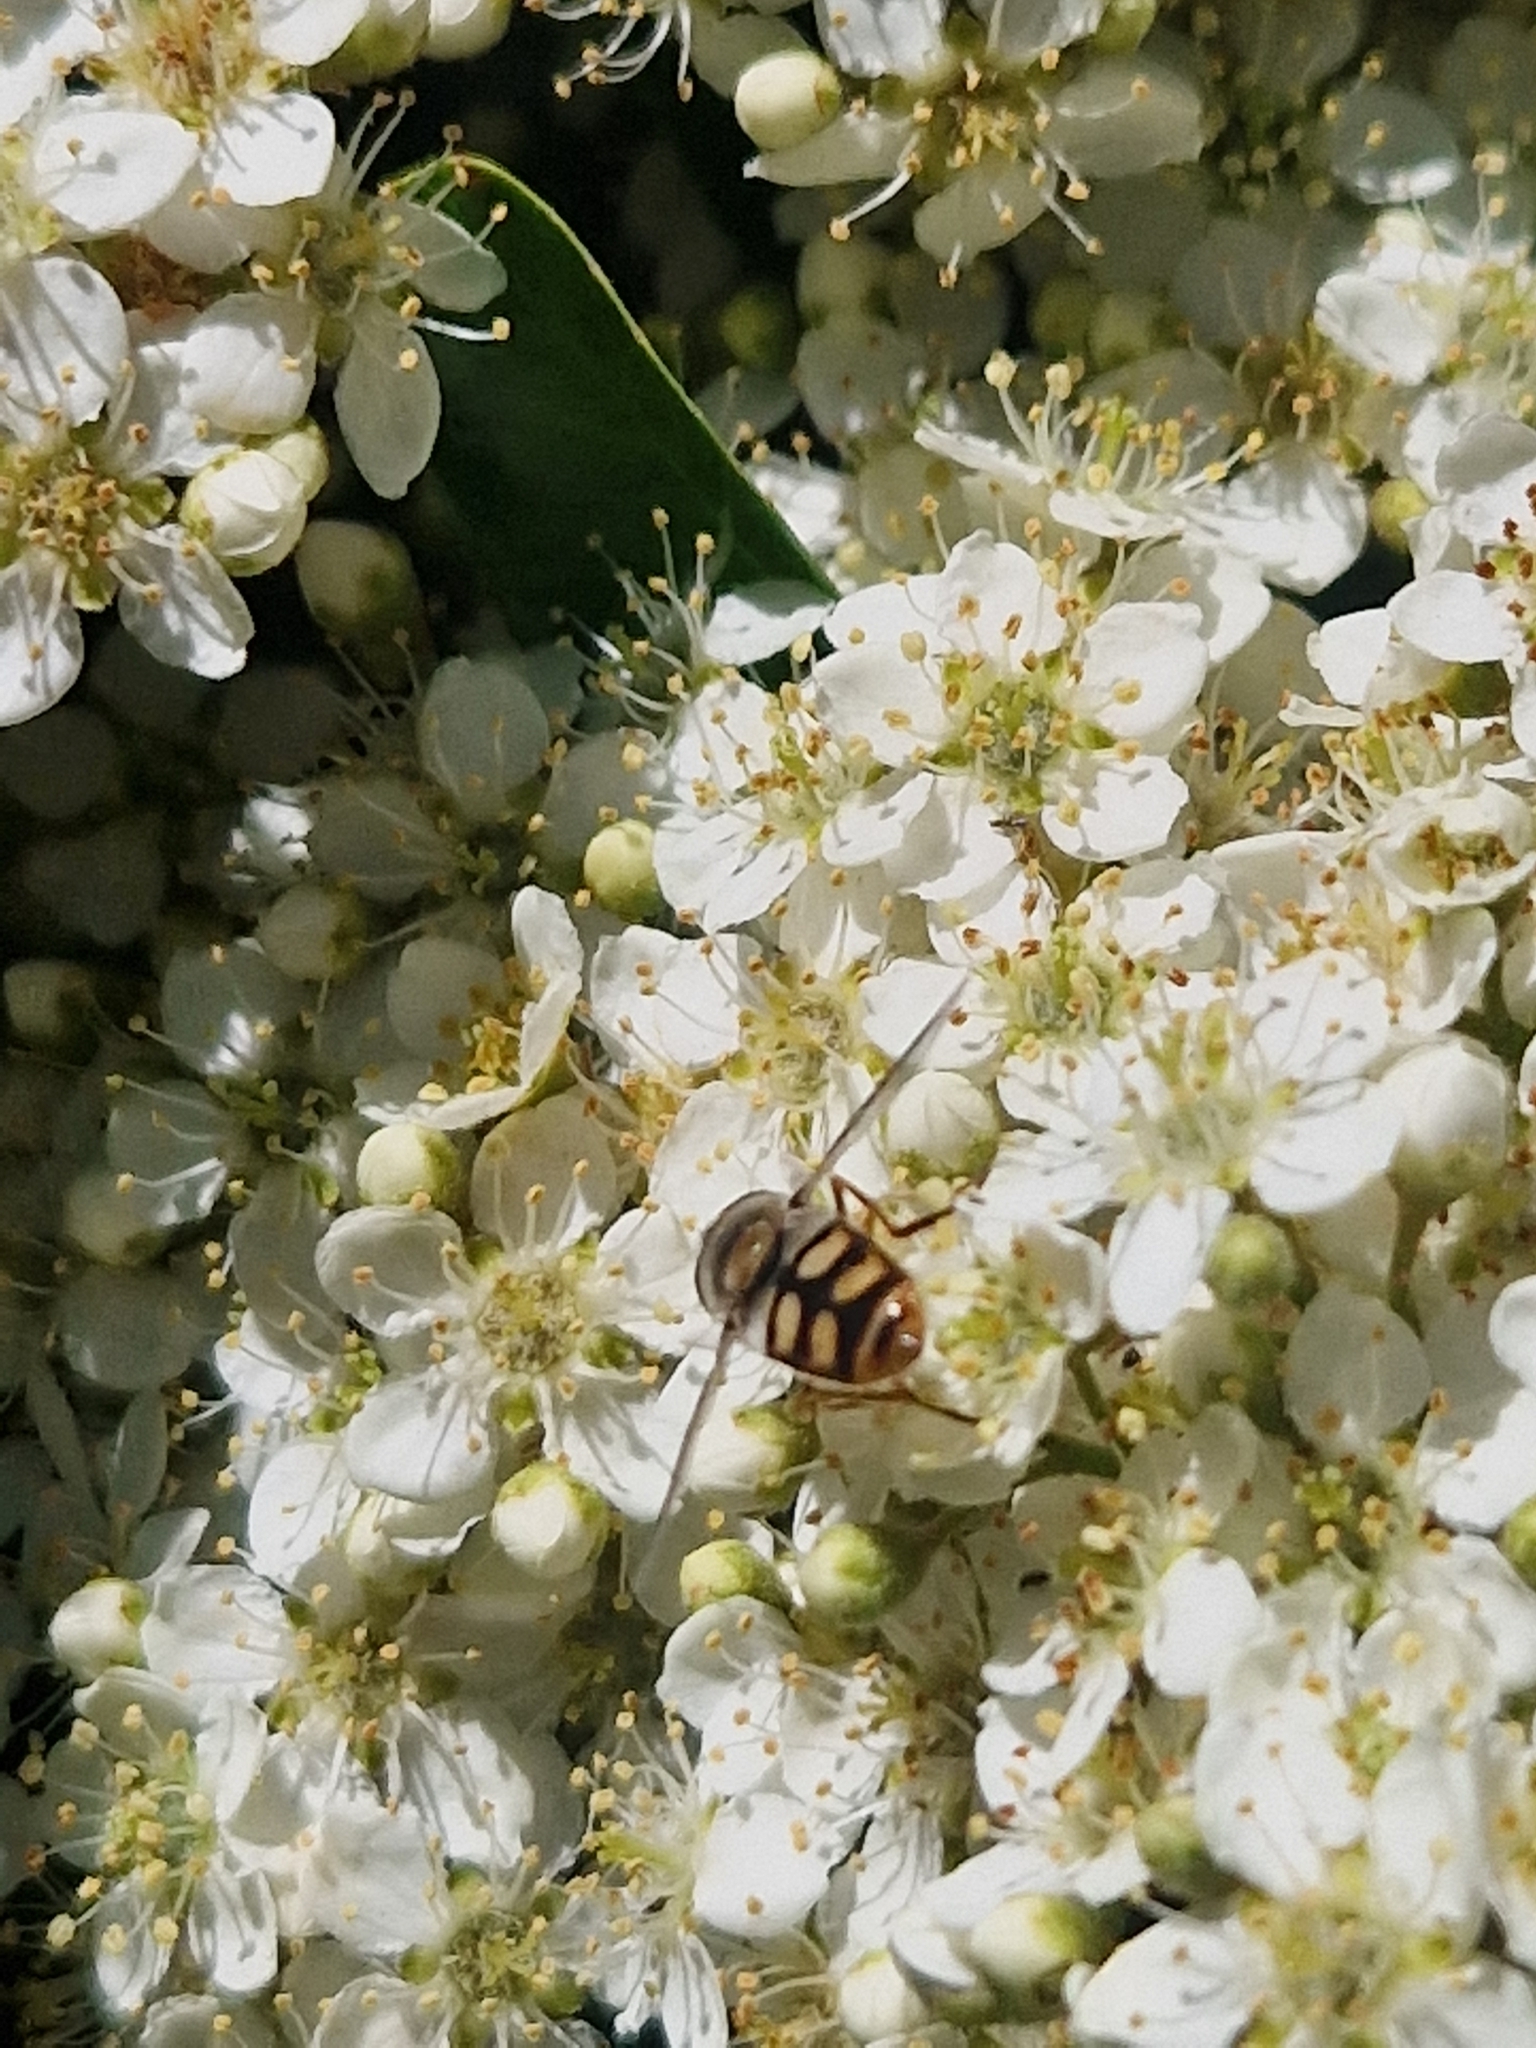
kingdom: Animalia
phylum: Arthropoda
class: Insecta
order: Diptera
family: Syrphidae
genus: Austroscaeva
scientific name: Austroscaeva occidentalis
